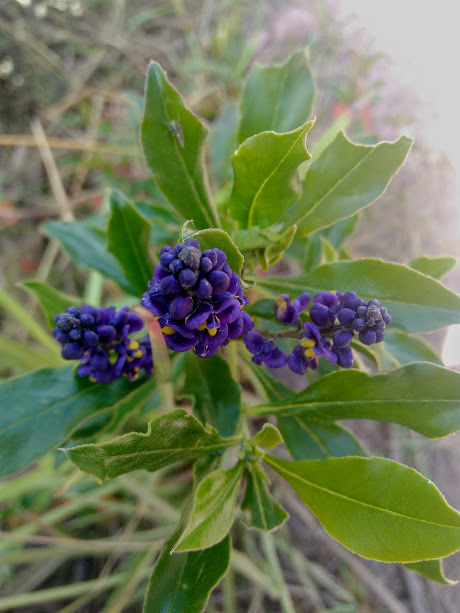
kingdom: Plantae
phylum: Tracheophyta
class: Magnoliopsida
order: Fabales
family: Polygalaceae
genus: Monnina
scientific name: Monnina salicifolia
